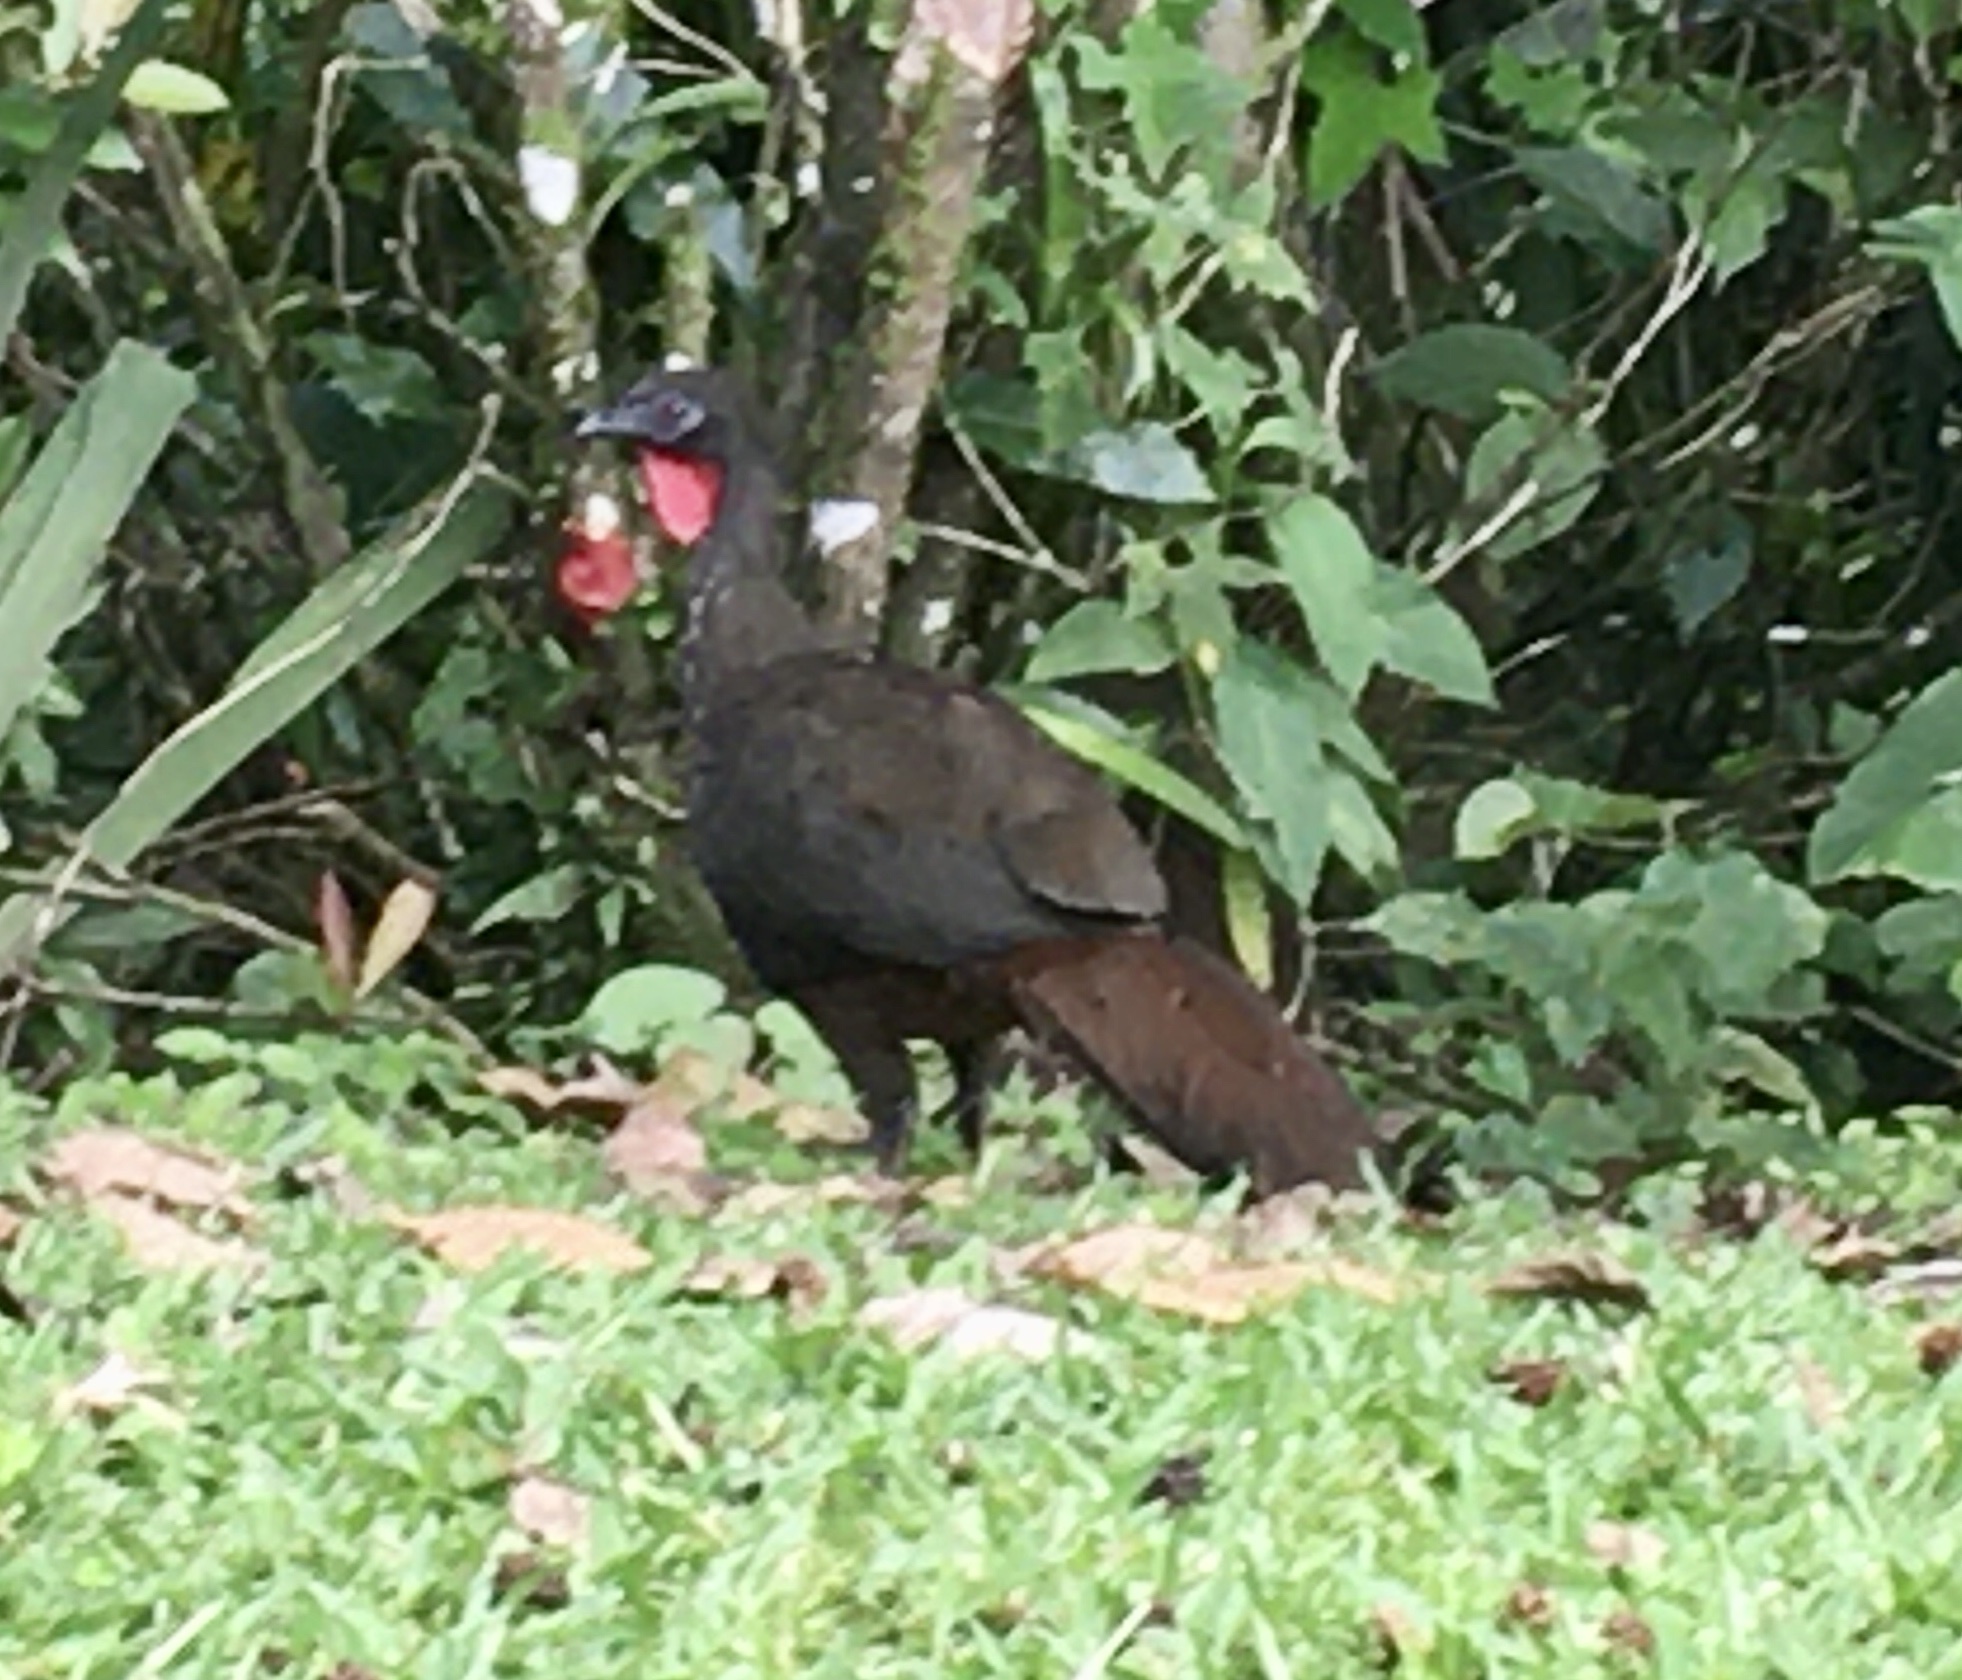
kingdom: Animalia
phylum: Chordata
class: Aves
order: Galliformes
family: Cracidae
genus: Penelope
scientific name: Penelope purpurascens
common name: Crested guan
